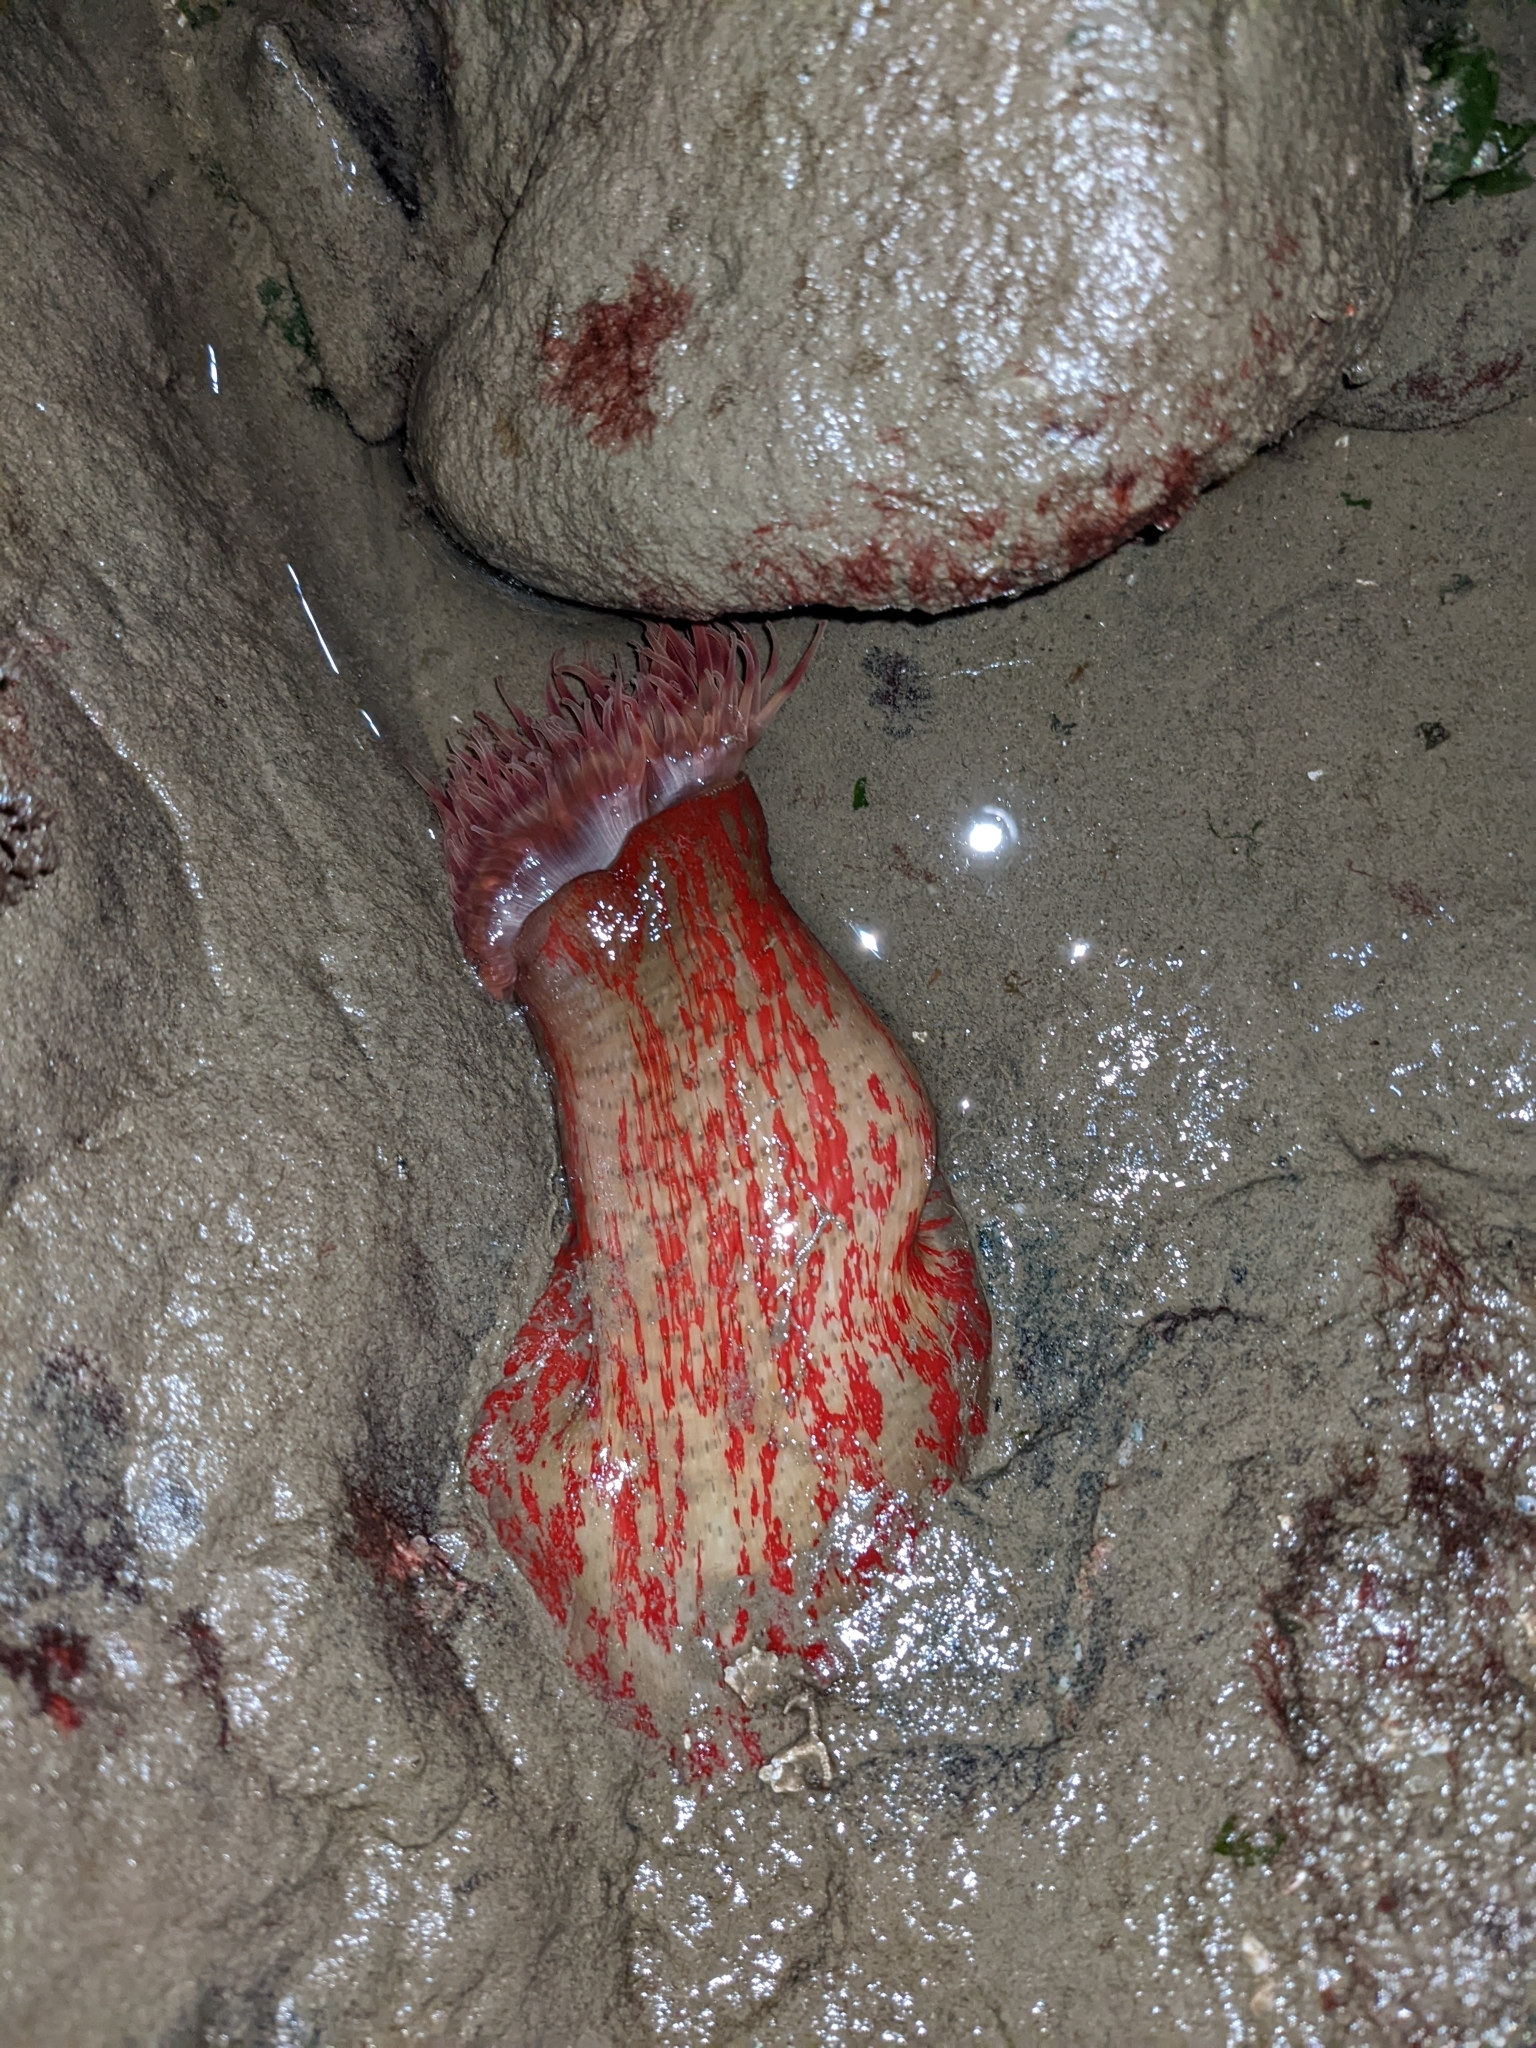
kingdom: Animalia
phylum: Cnidaria
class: Anthozoa
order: Actiniaria
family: Actiniidae
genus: Urticina
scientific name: Urticina grebelnyi
